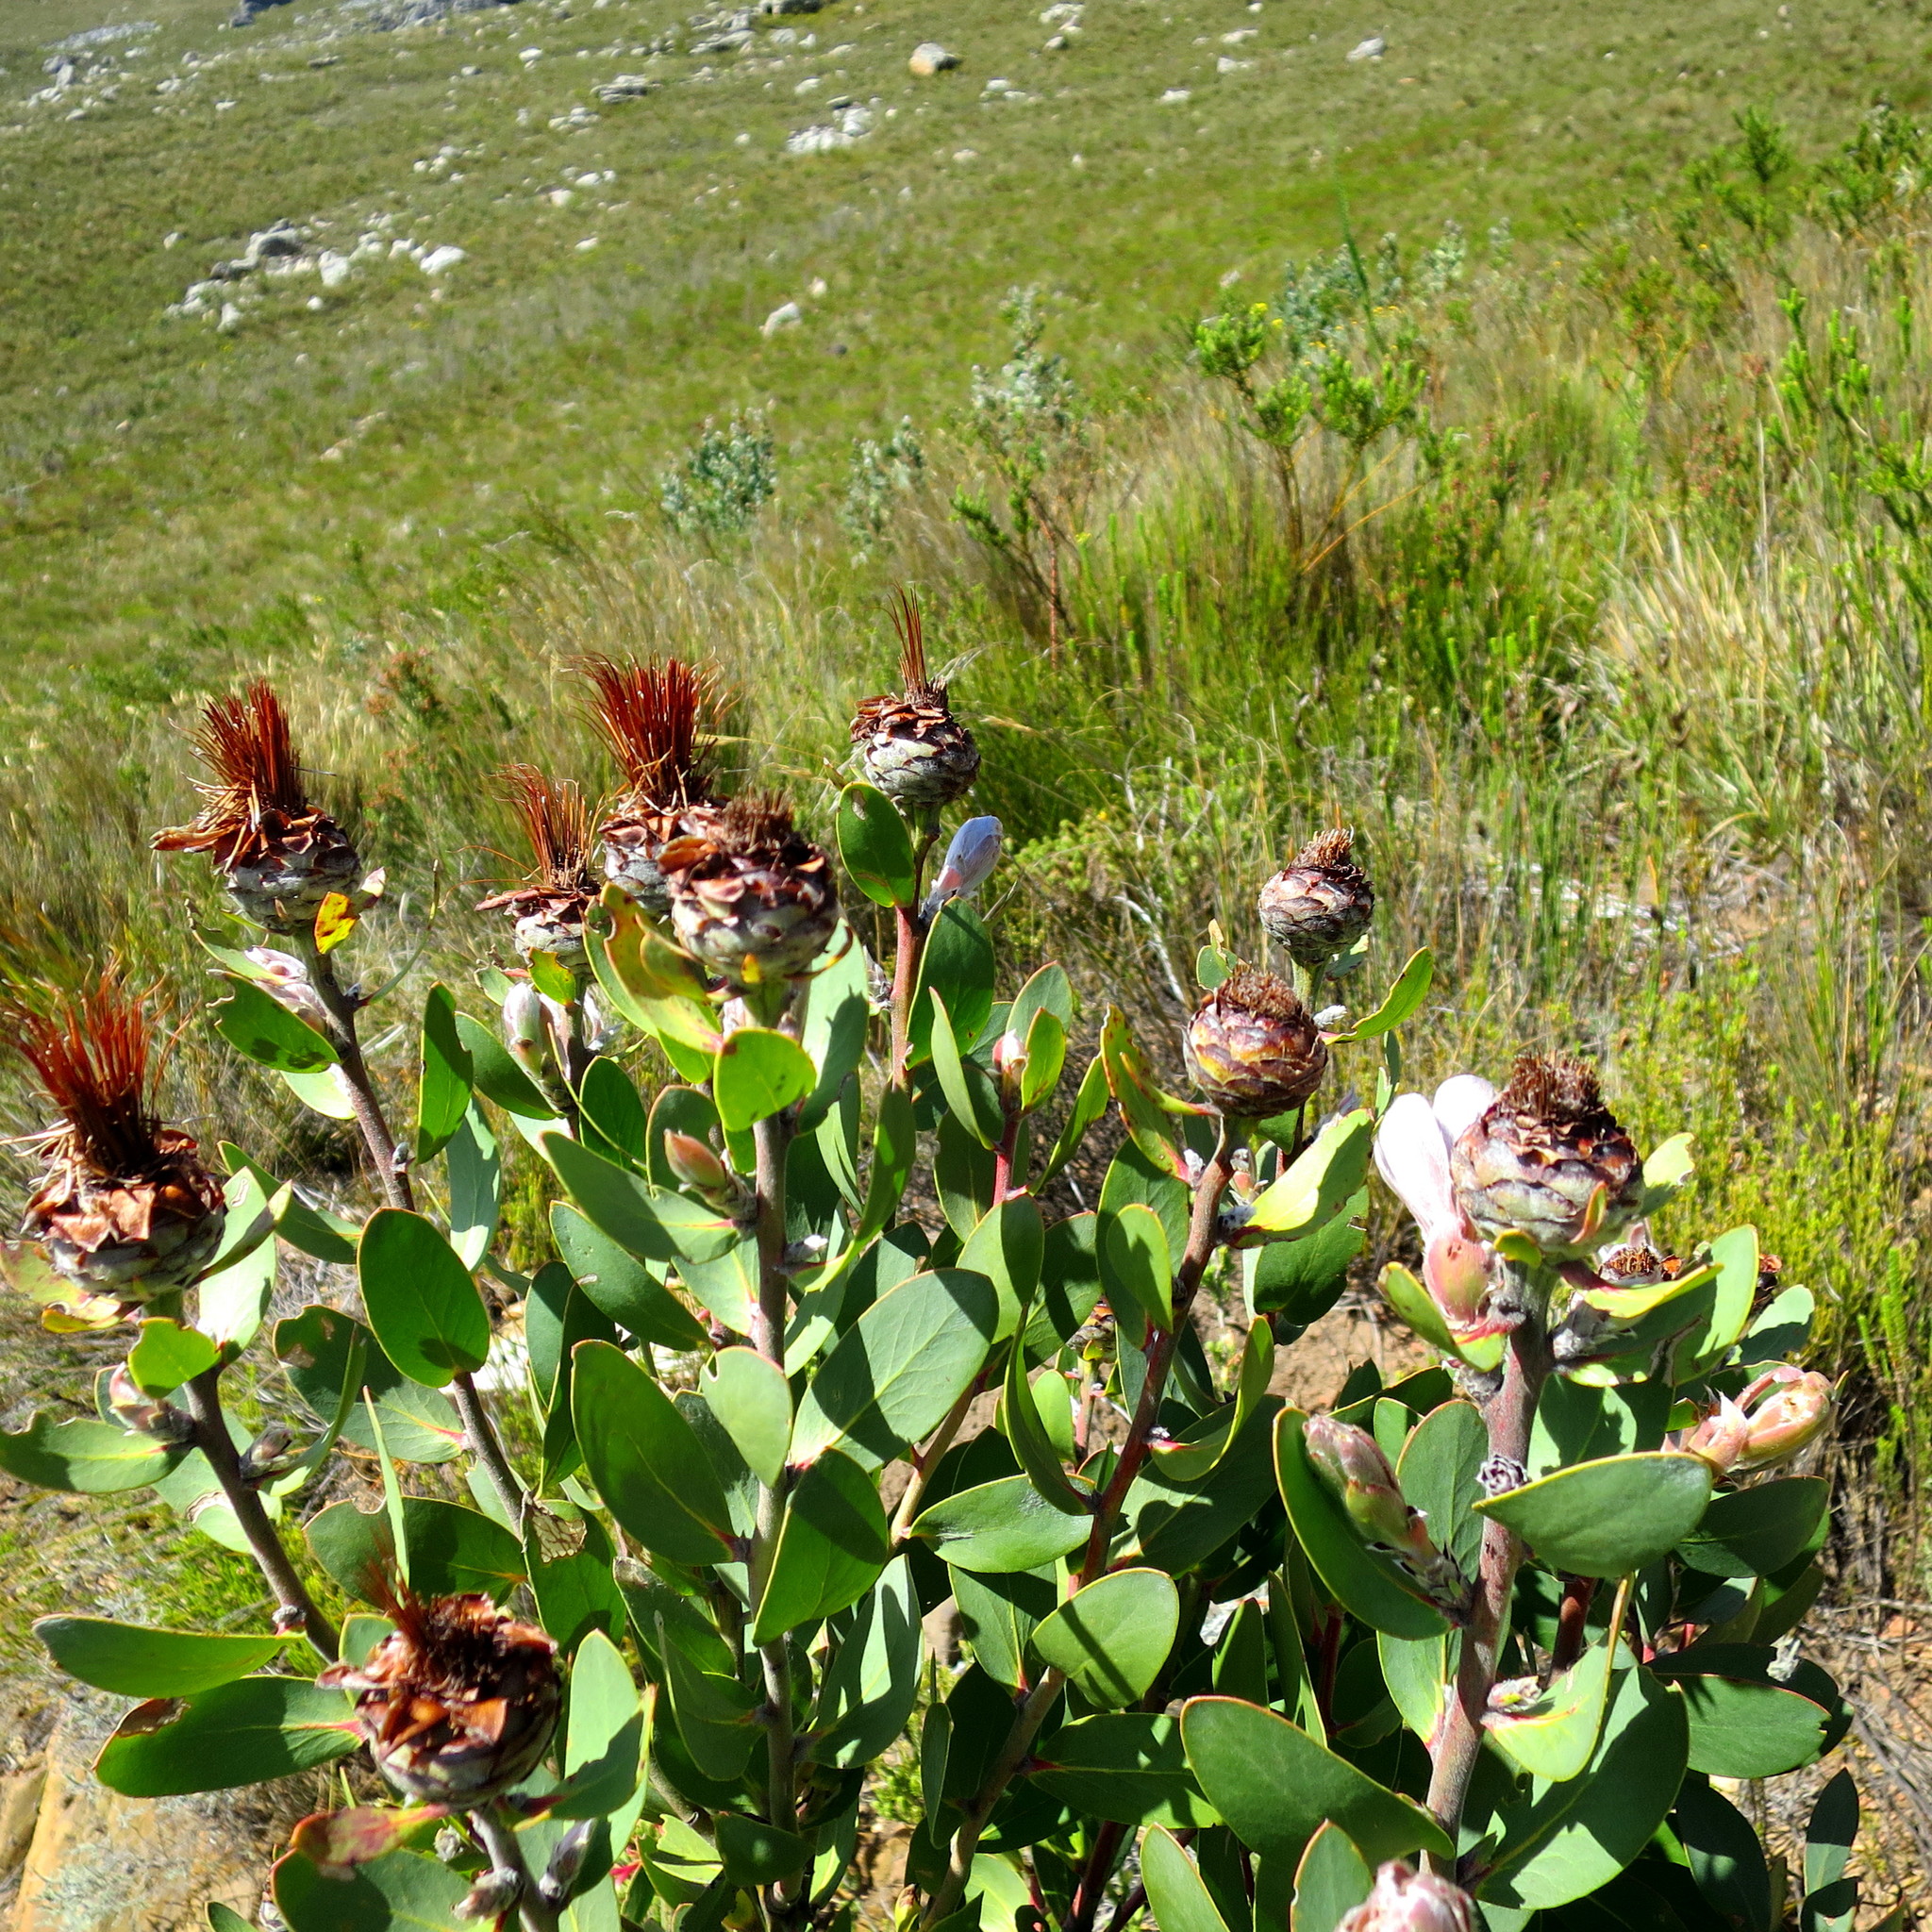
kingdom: Plantae
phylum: Tracheophyta
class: Magnoliopsida
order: Proteales
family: Proteaceae
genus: Protea
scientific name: Protea punctata
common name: Water sugarbush
